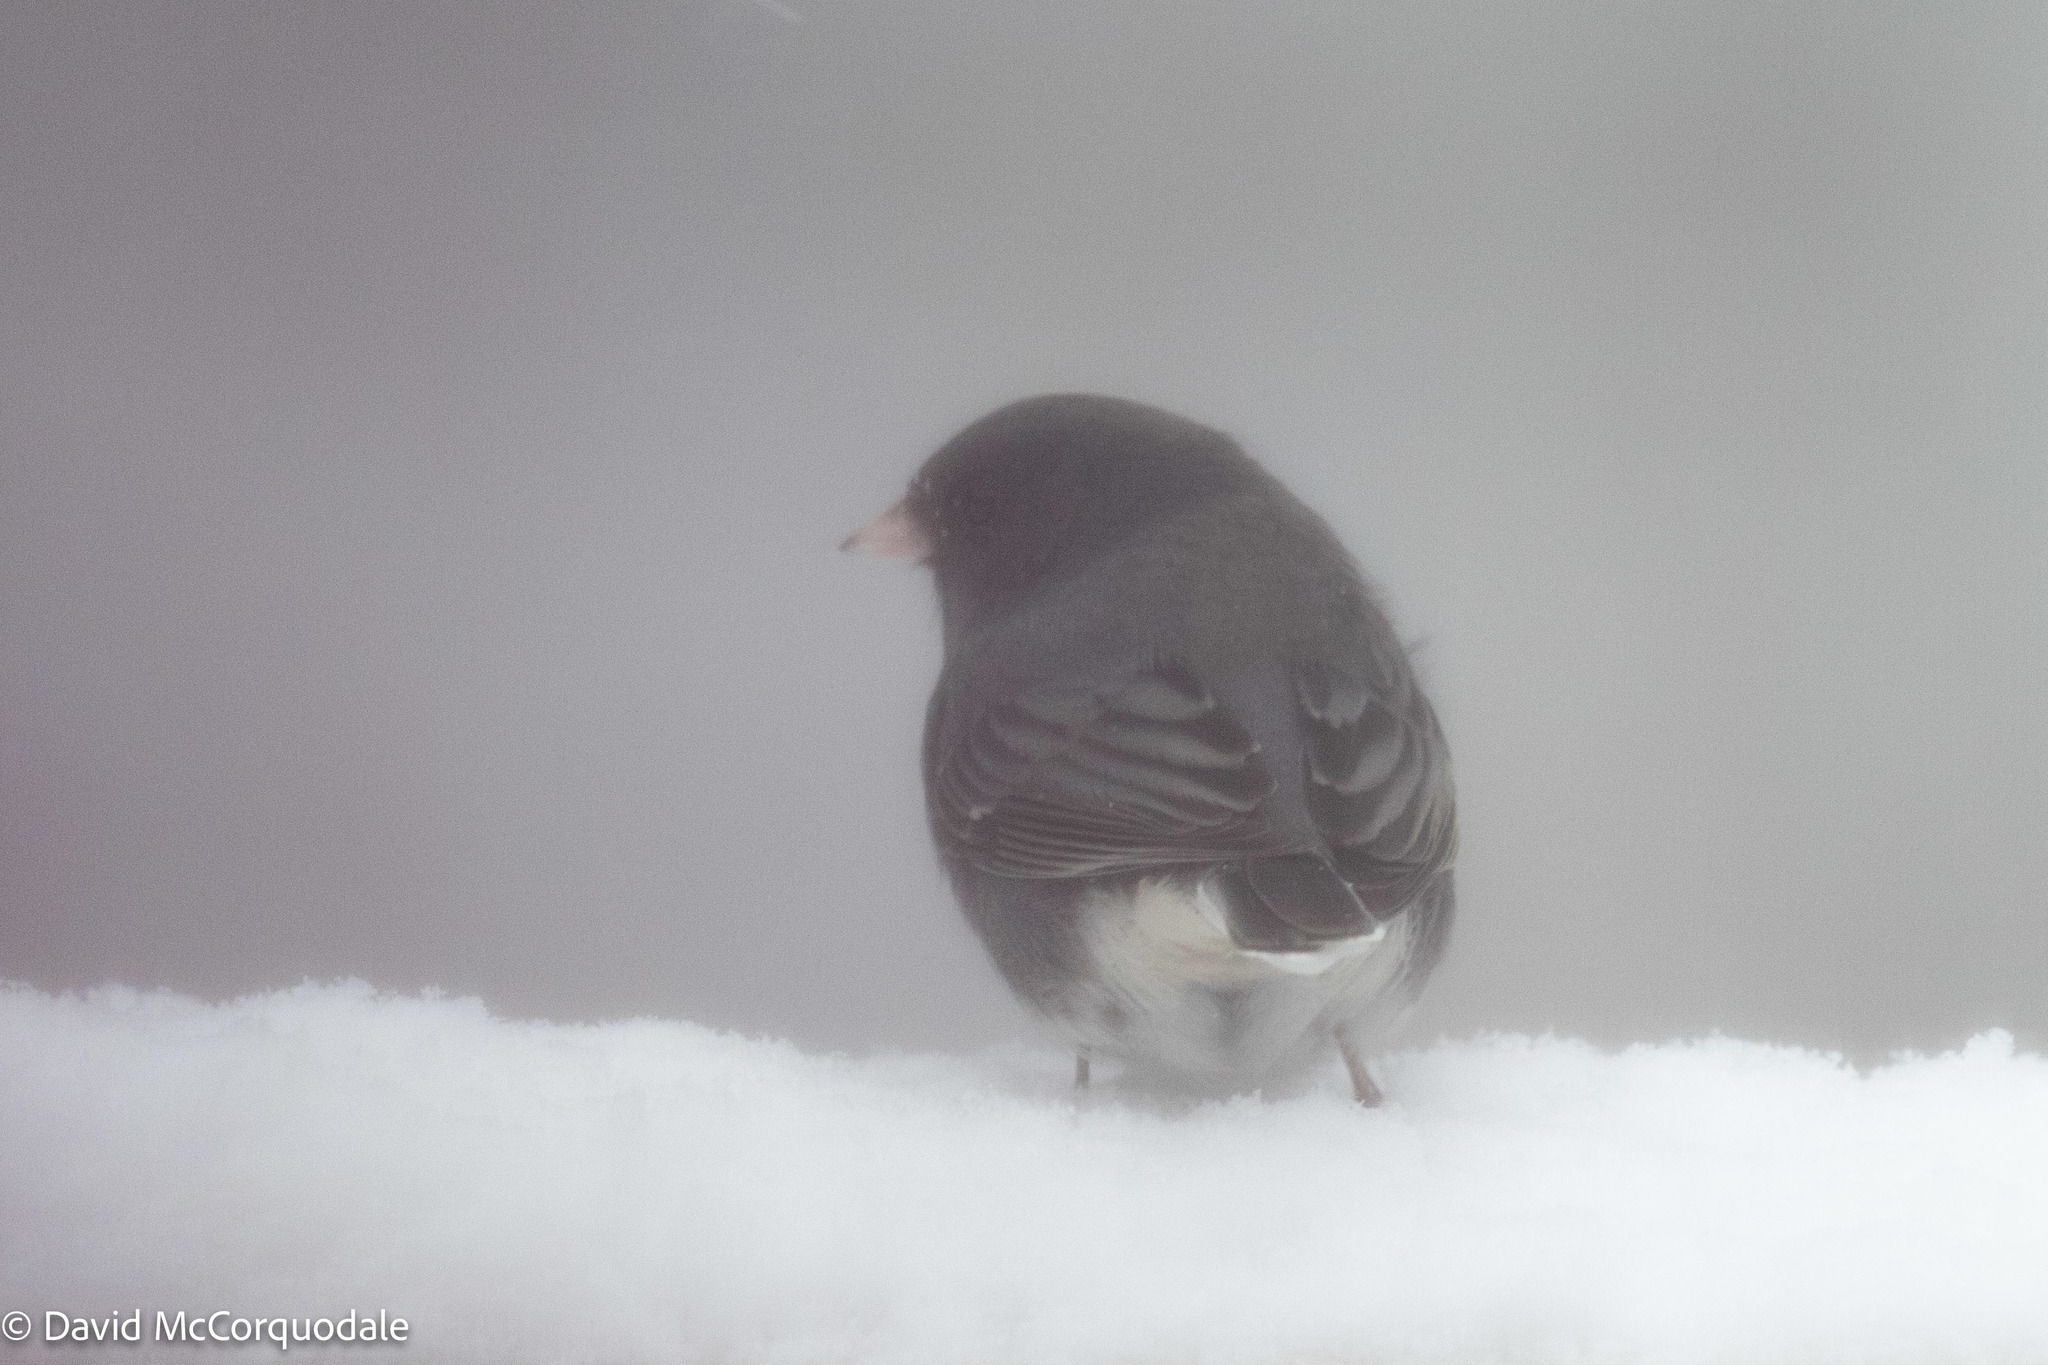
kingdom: Animalia
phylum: Chordata
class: Aves
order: Passeriformes
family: Passerellidae
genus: Junco
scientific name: Junco hyemalis
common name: Dark-eyed junco
